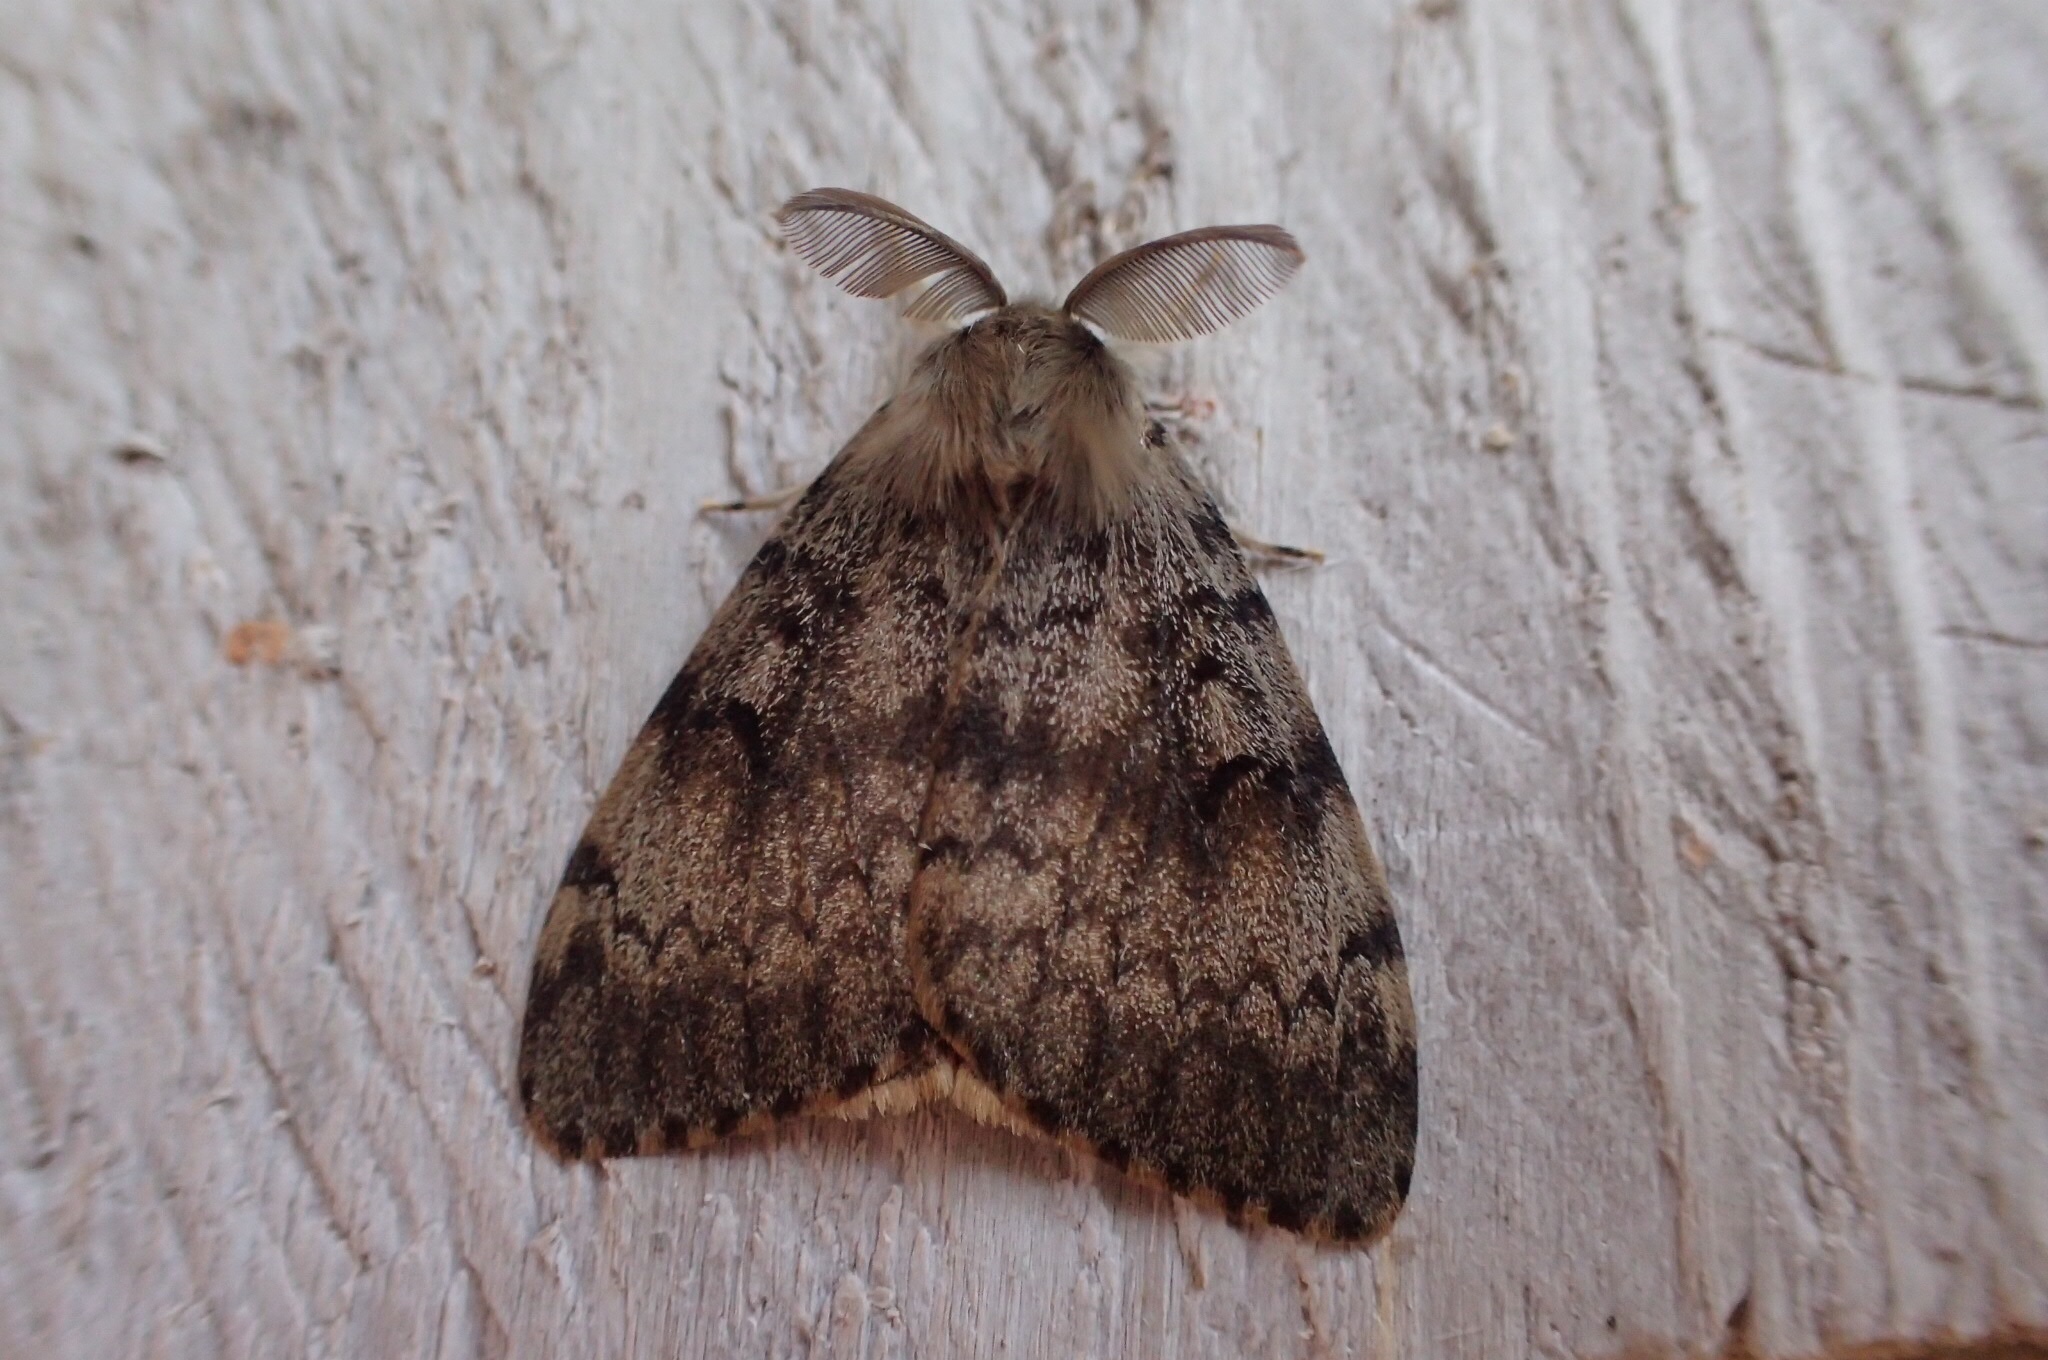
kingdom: Animalia
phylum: Arthropoda
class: Insecta
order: Lepidoptera
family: Erebidae
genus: Lymantria
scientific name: Lymantria dispar
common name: Gypsy moth
